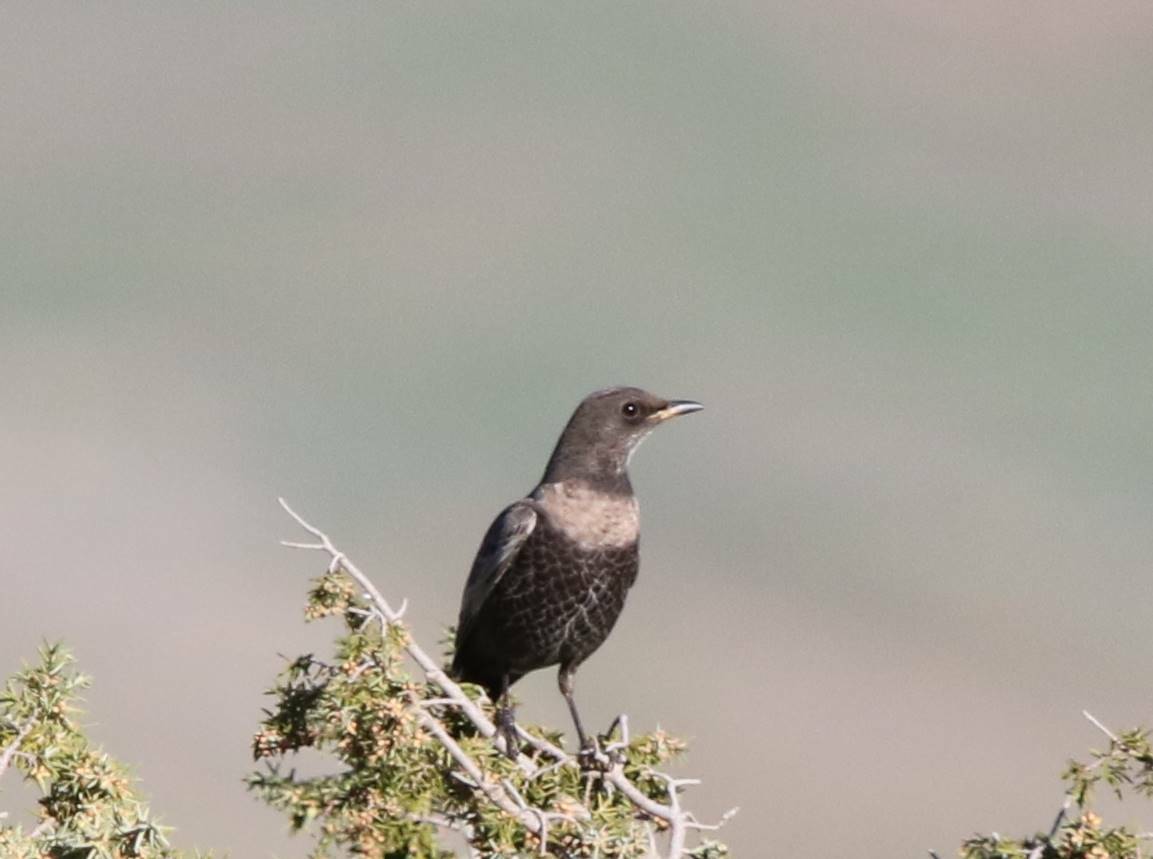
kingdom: Animalia
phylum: Chordata
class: Aves
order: Passeriformes
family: Turdidae
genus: Turdus
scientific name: Turdus torquatus
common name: Ring ouzel
